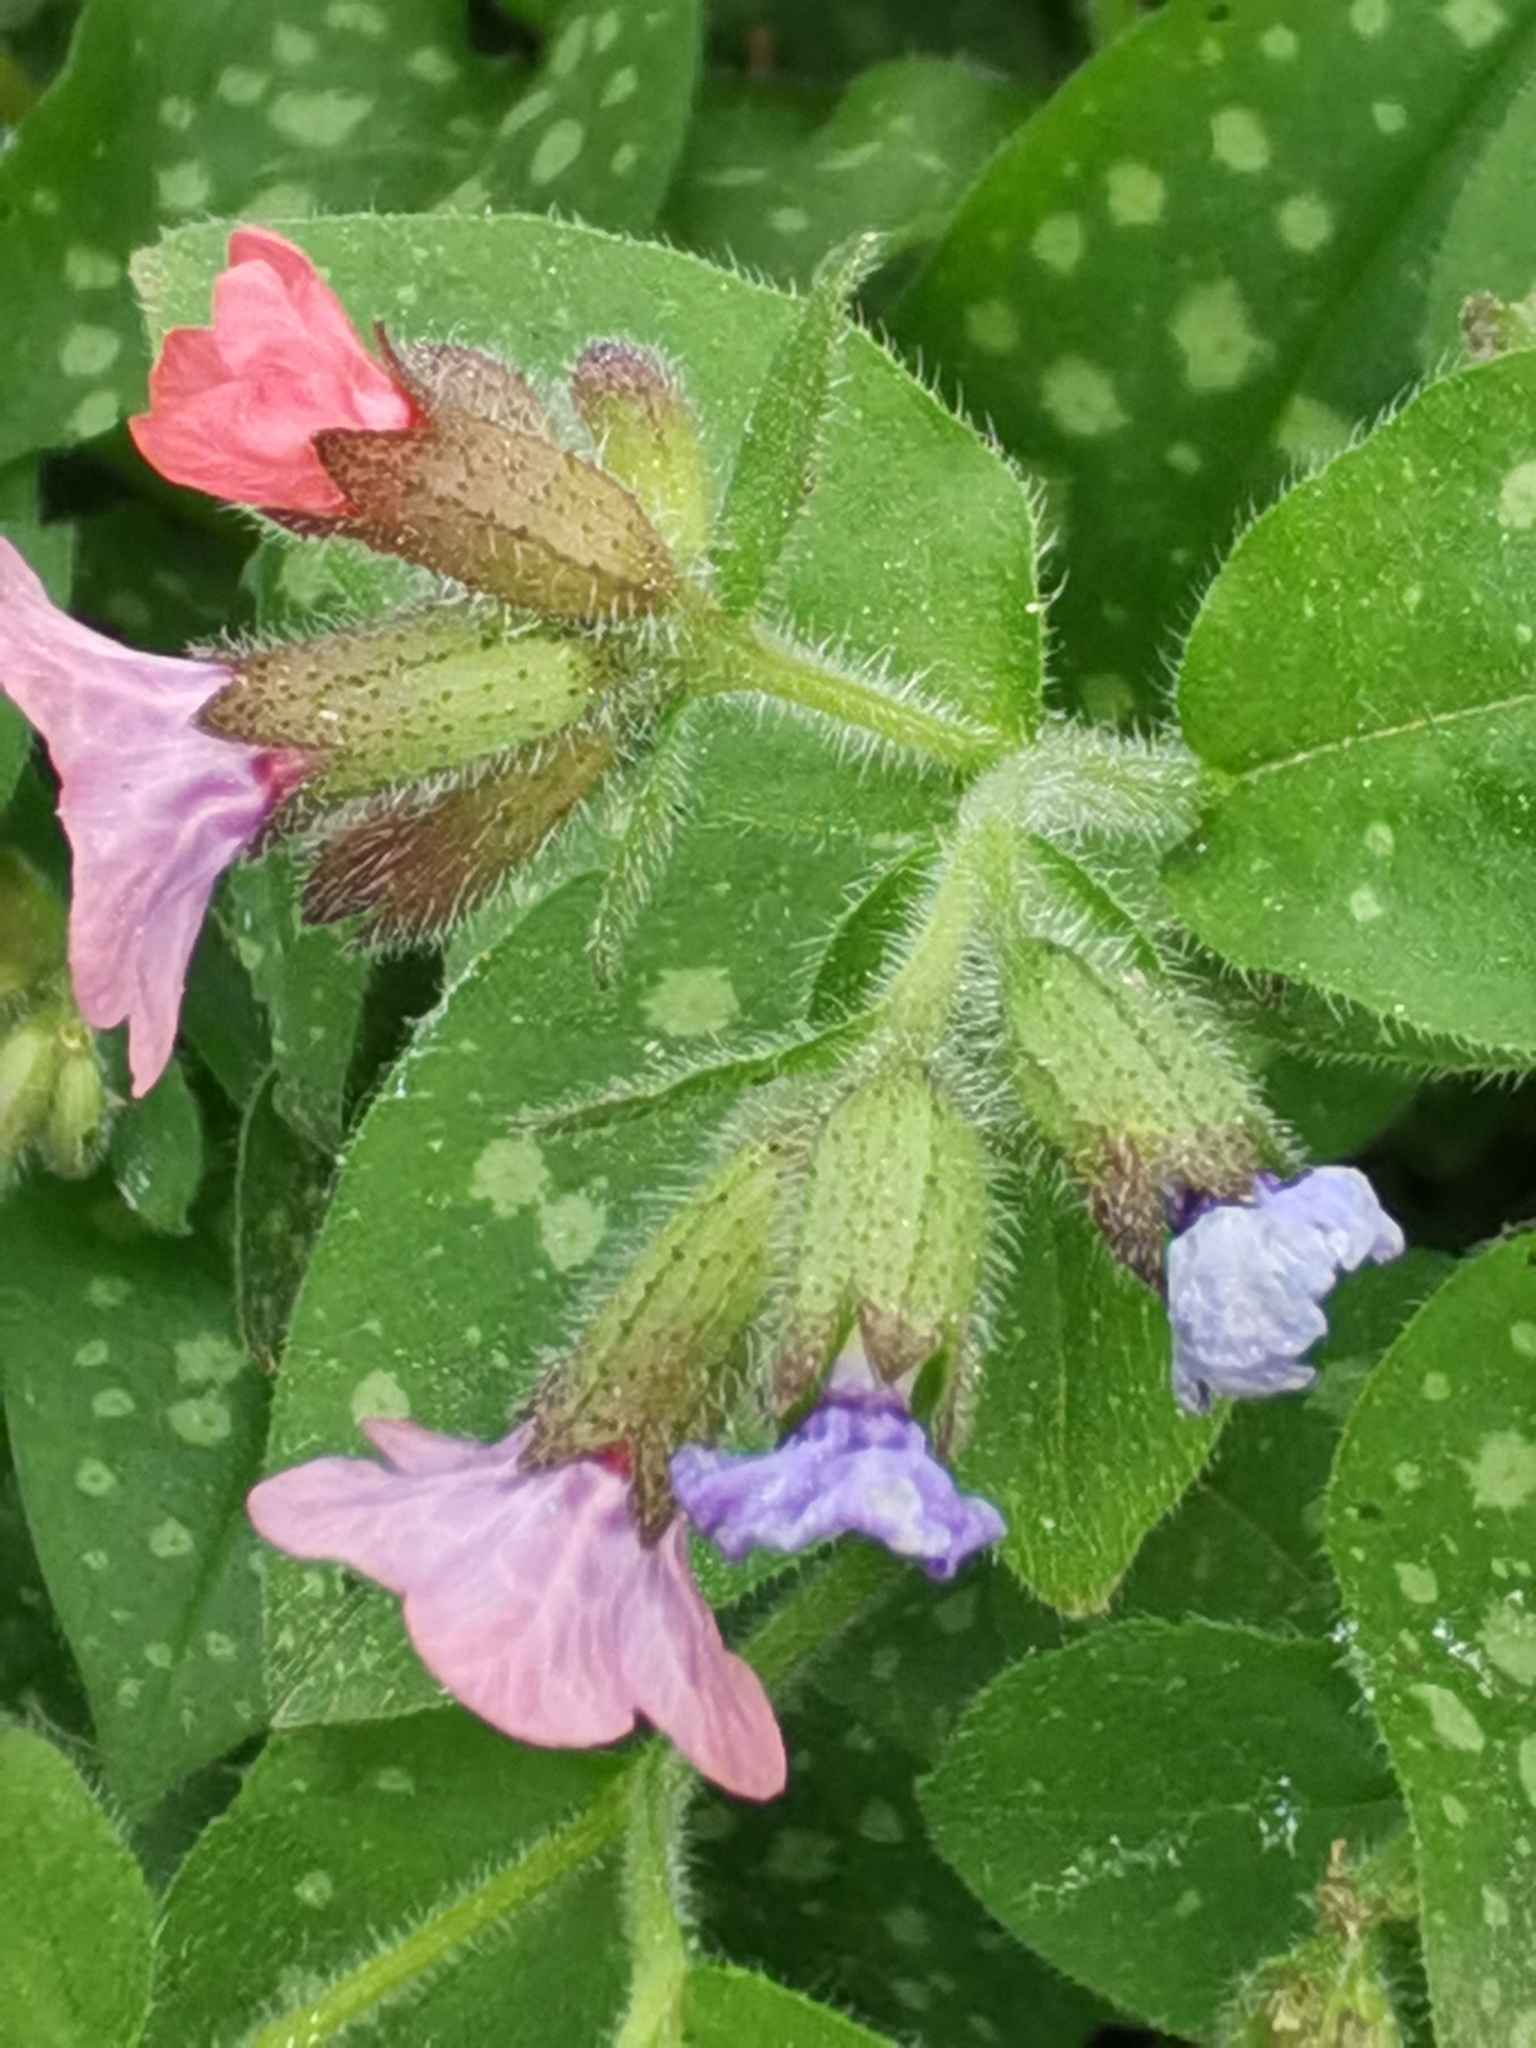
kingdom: Plantae
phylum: Tracheophyta
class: Magnoliopsida
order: Boraginales
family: Boraginaceae
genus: Pulmonaria
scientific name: Pulmonaria officinalis
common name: Lungwort
